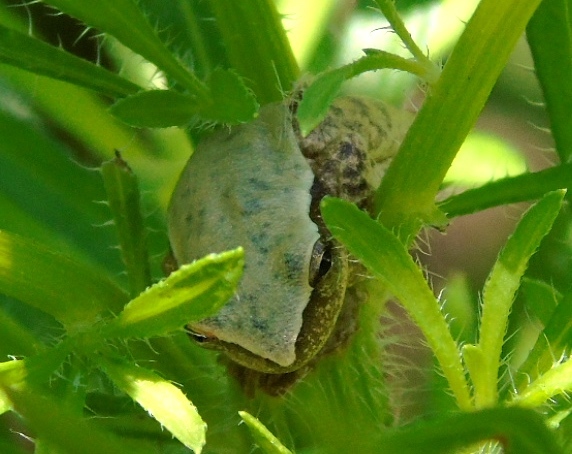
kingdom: Animalia
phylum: Chordata
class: Amphibia
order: Anura
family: Hylidae
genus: Tlalocohyla
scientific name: Tlalocohyla smithii
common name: Dwarf mexican treefrog
